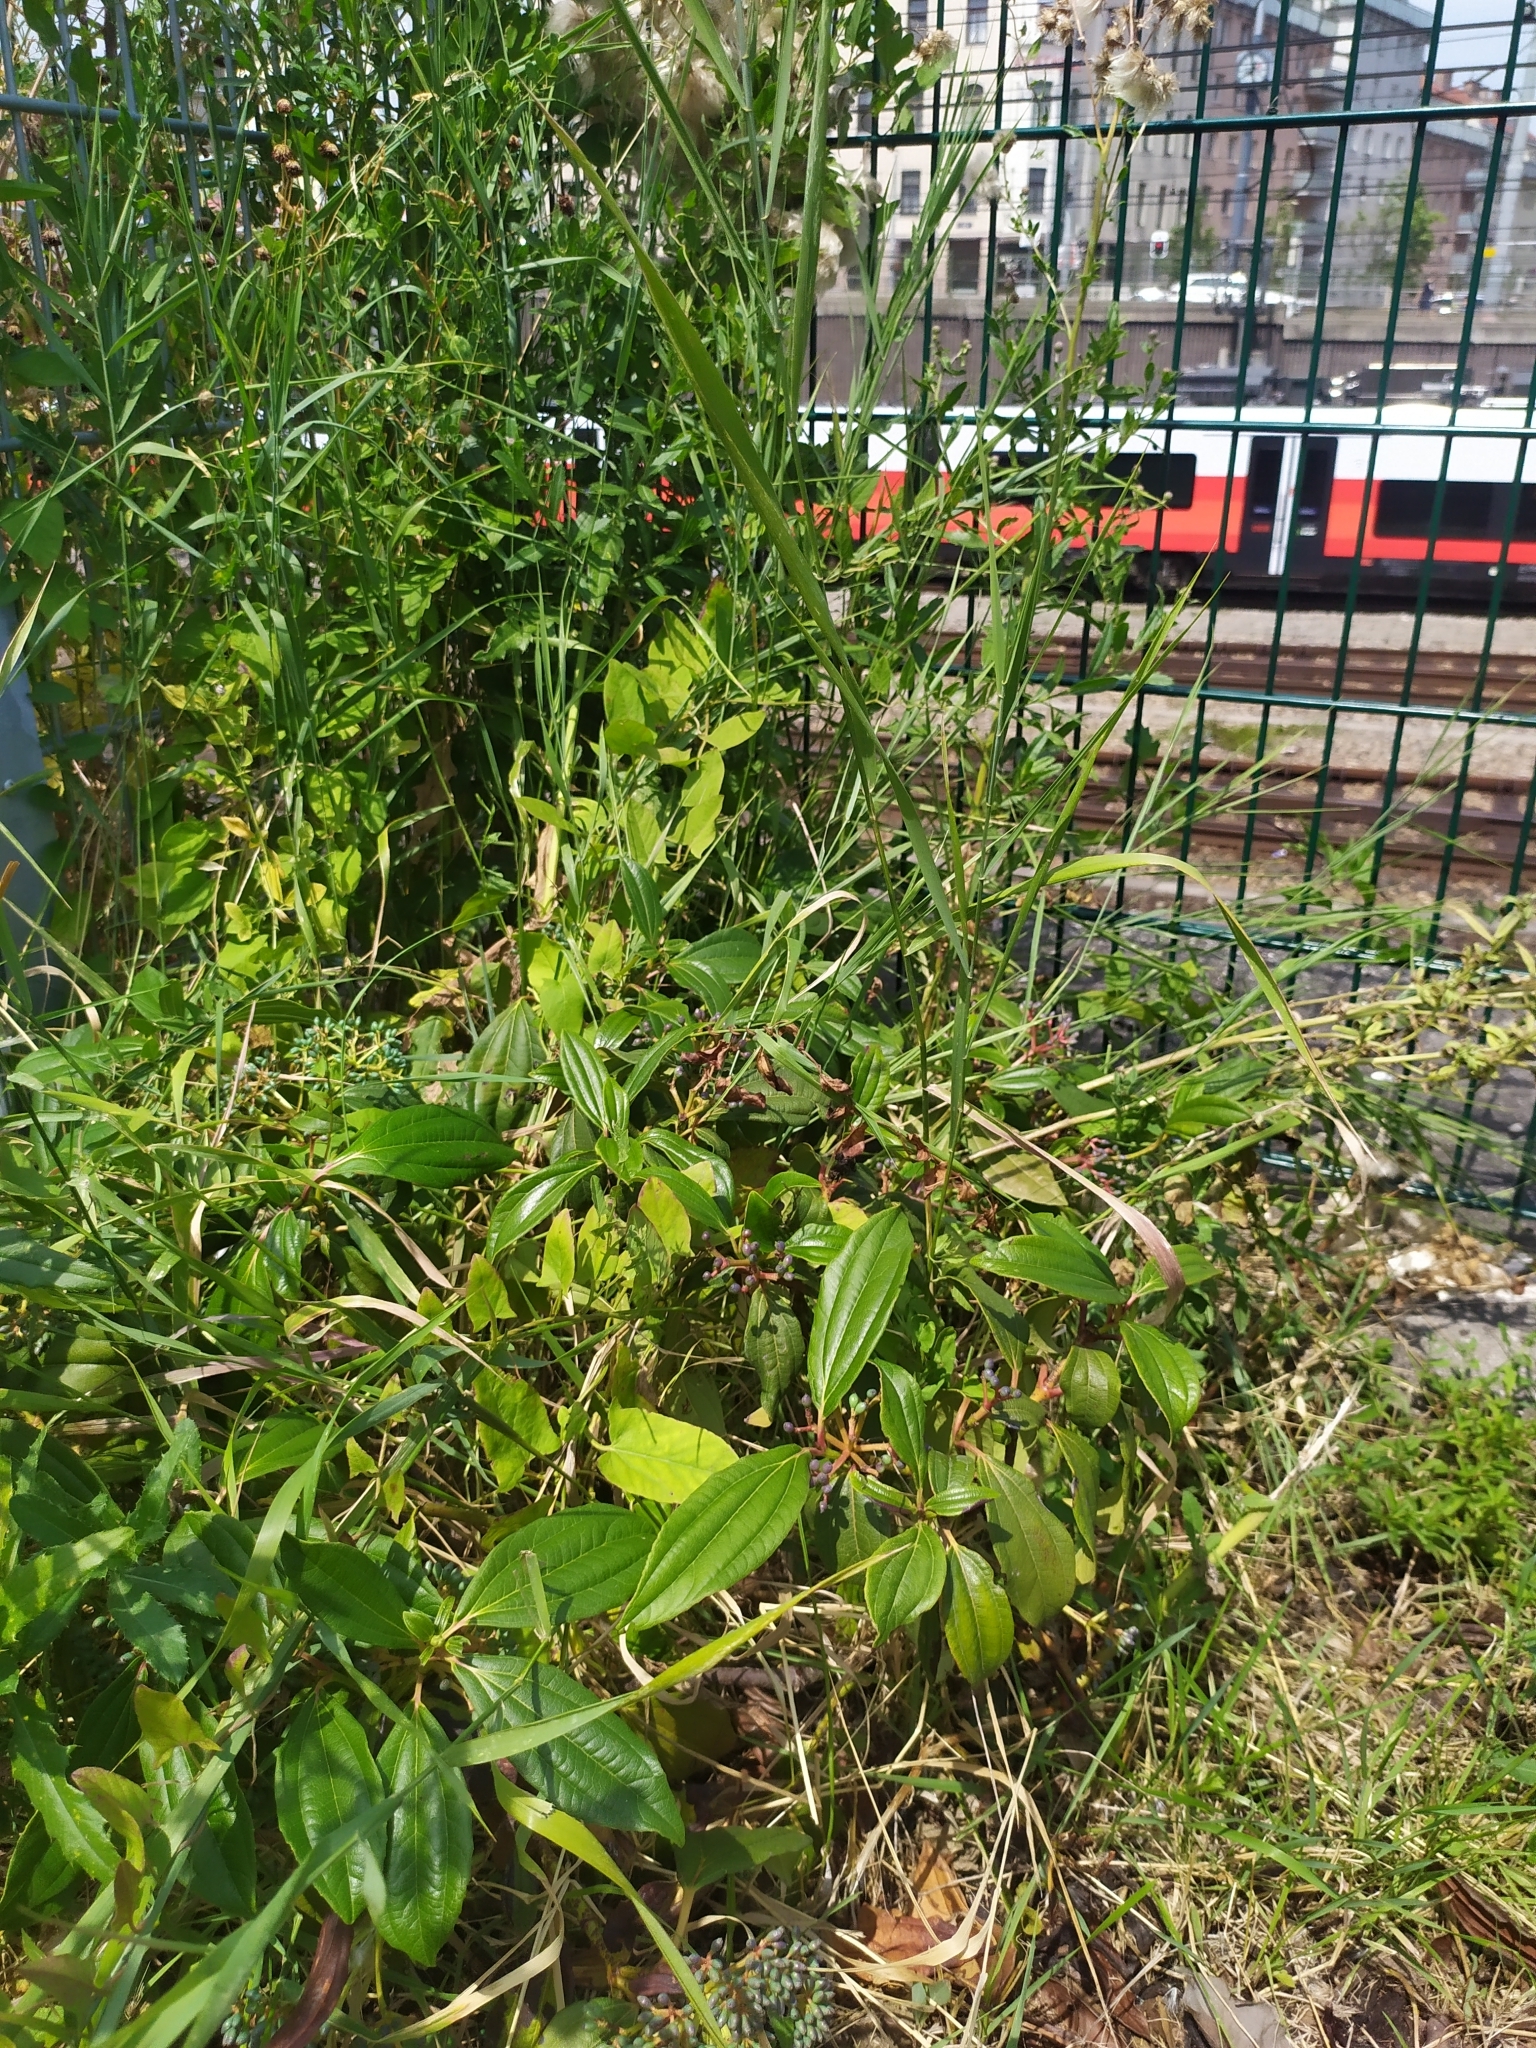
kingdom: Plantae
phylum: Tracheophyta
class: Magnoliopsida
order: Dipsacales
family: Viburnaceae
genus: Viburnum
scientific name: Viburnum davidi
